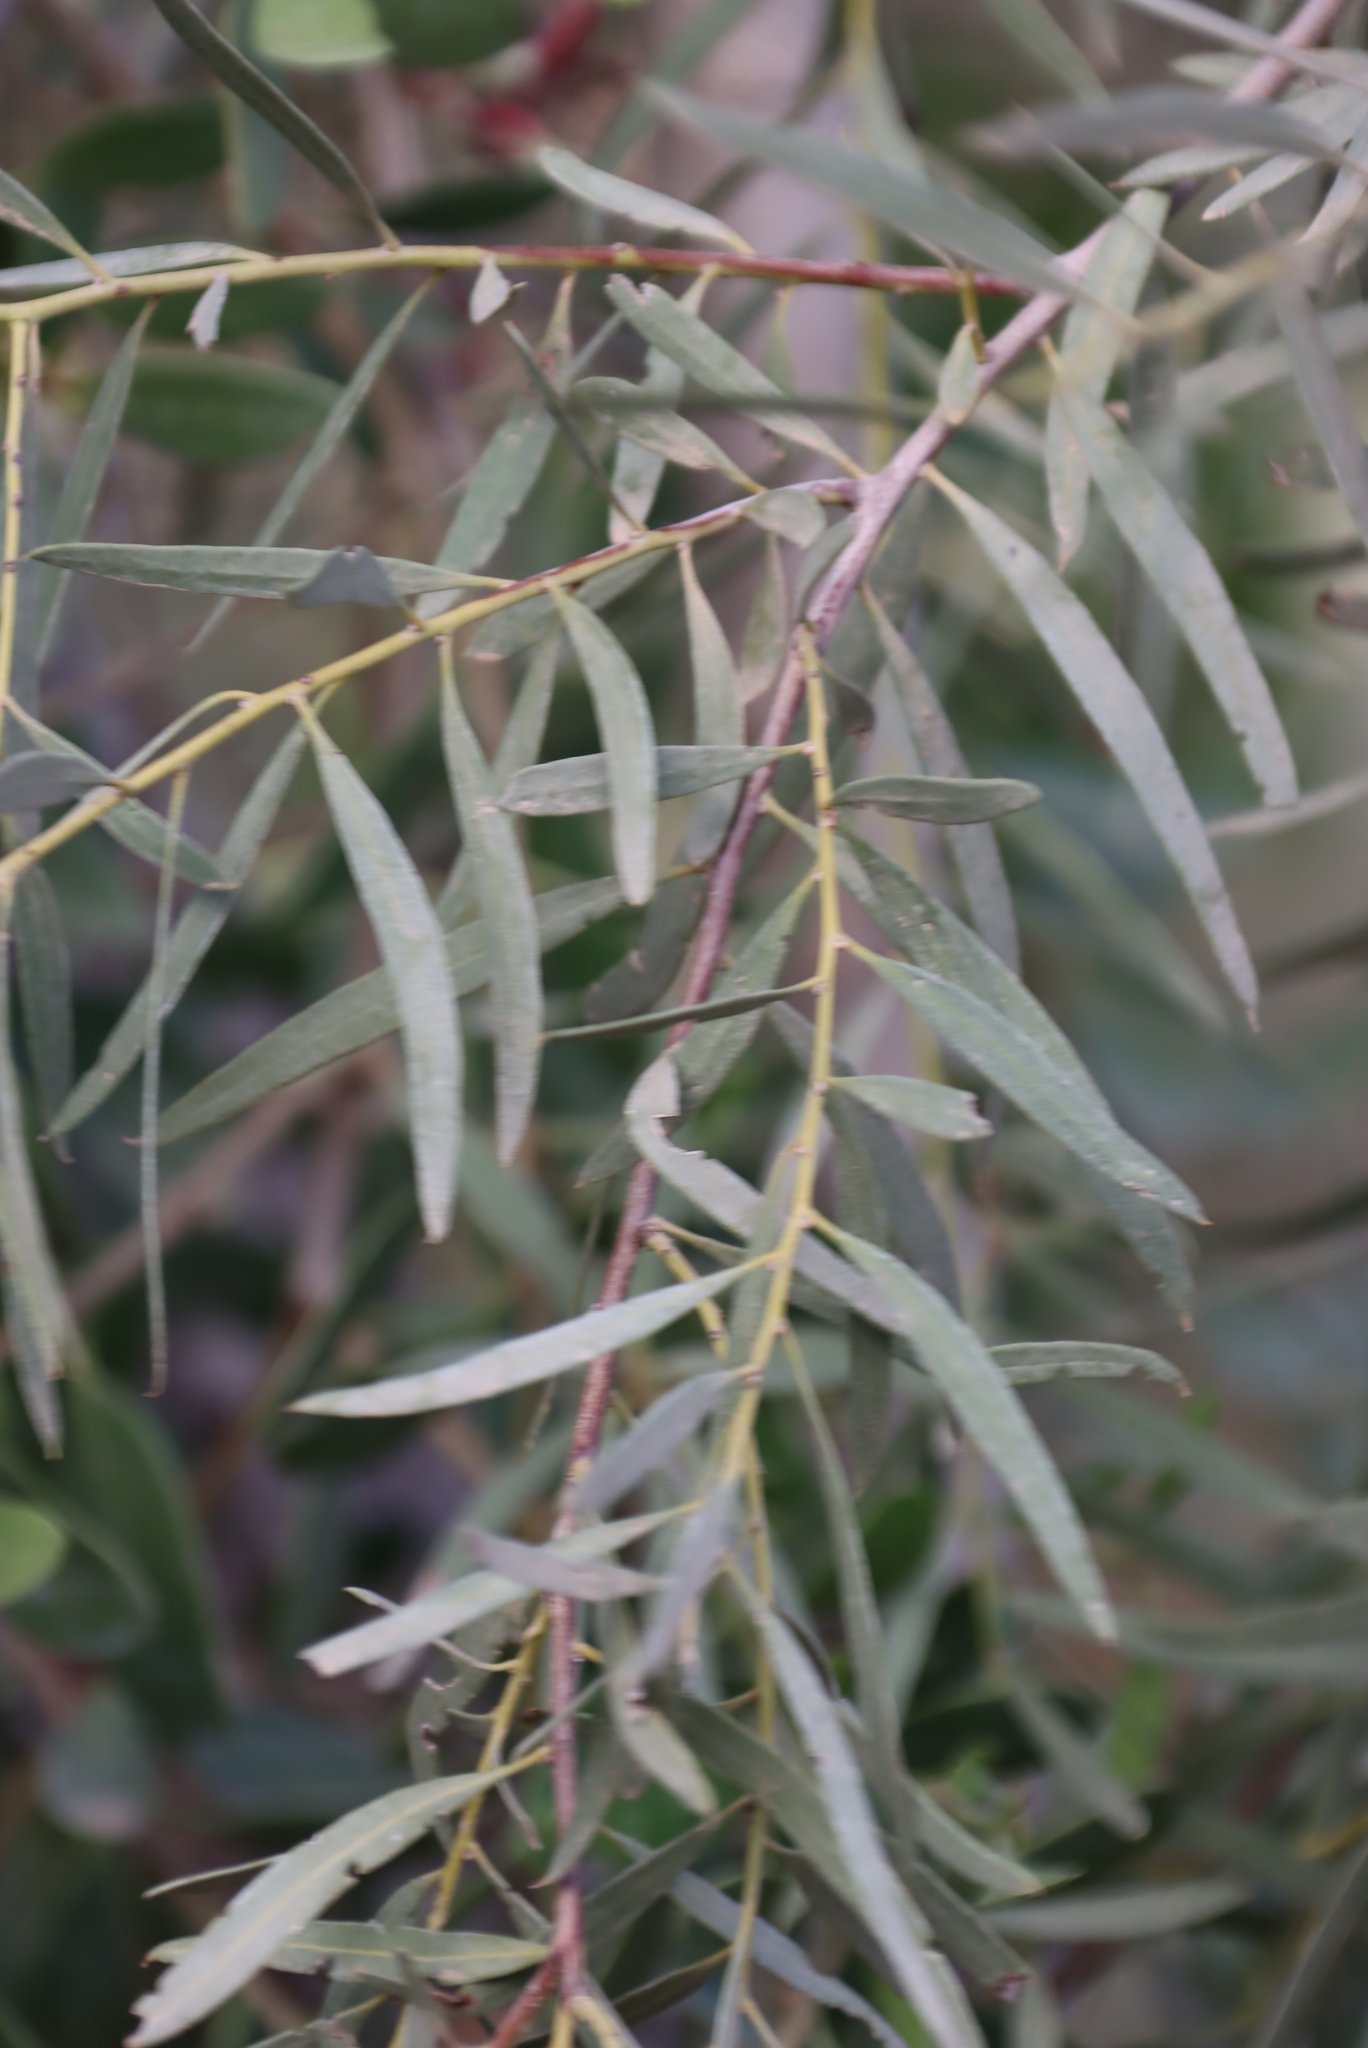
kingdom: Plantae
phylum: Tracheophyta
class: Magnoliopsida
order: Ericales
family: Ebenaceae
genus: Euclea
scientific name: Euclea pseudebenus
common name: Black ebony
